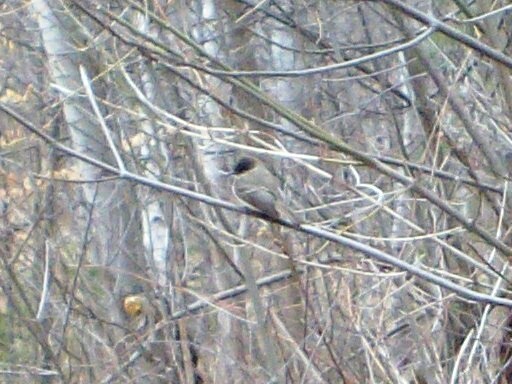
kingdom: Animalia
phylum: Chordata
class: Aves
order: Passeriformes
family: Tyrannidae
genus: Sayornis
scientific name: Sayornis phoebe
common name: Eastern phoebe
